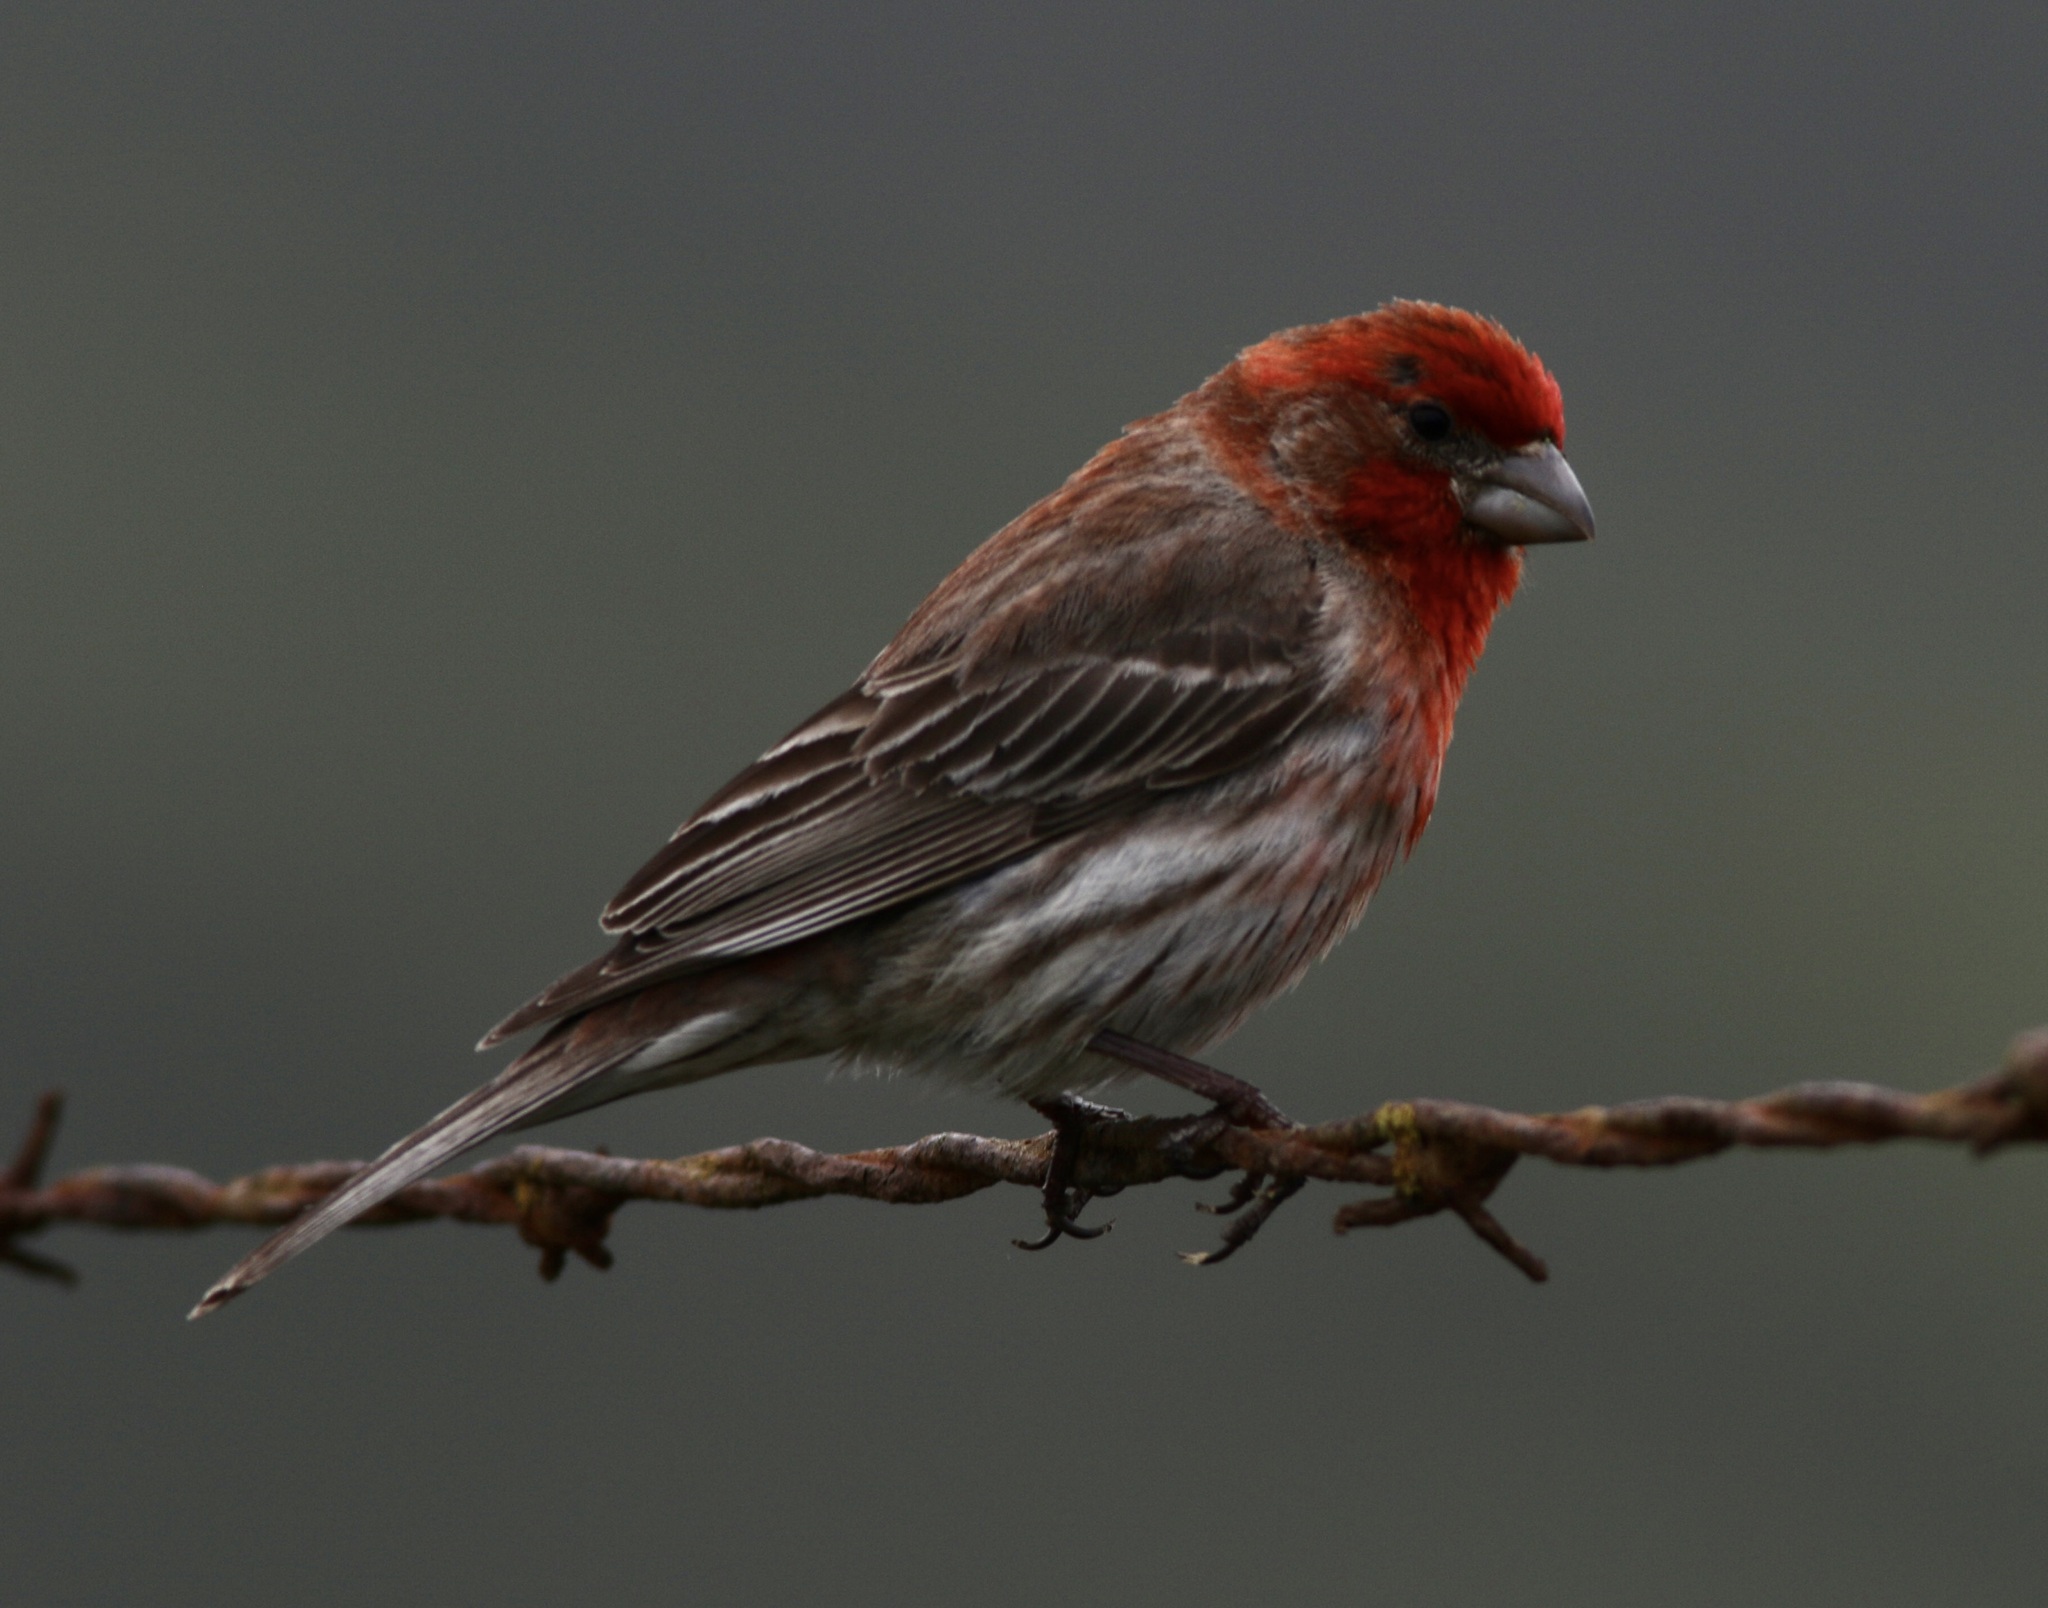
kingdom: Animalia
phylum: Chordata
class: Aves
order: Passeriformes
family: Fringillidae
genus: Haemorhous
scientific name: Haemorhous mexicanus
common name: House finch
